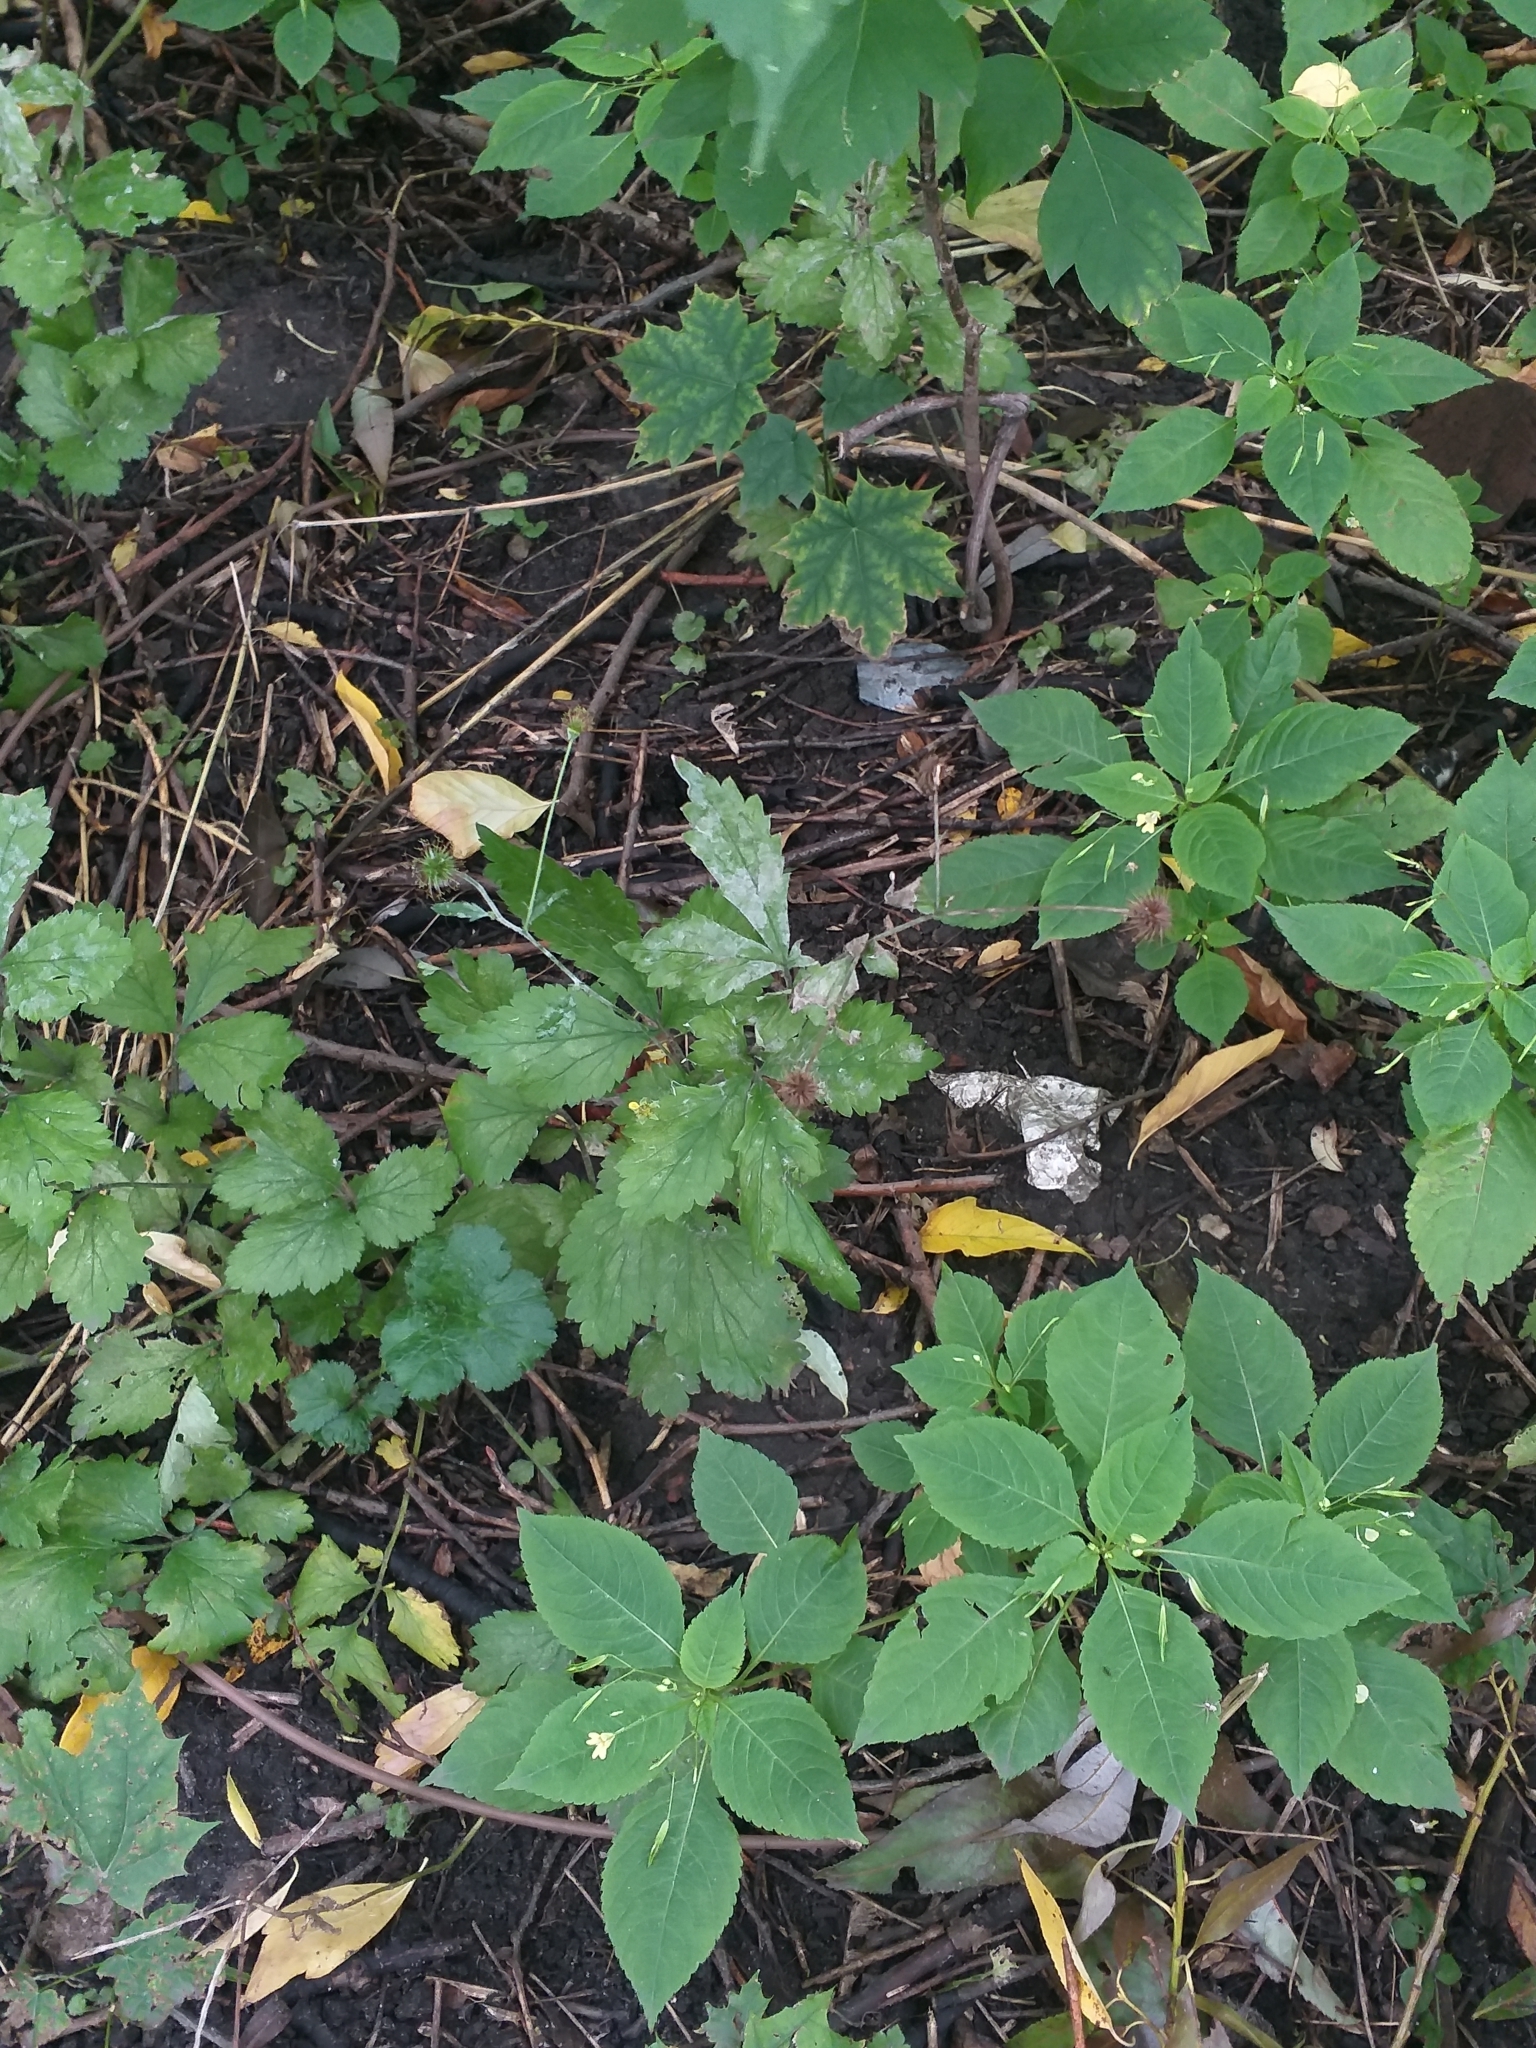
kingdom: Plantae
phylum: Tracheophyta
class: Magnoliopsida
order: Rosales
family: Rosaceae
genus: Geum
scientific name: Geum urbanum
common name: Wood avens
